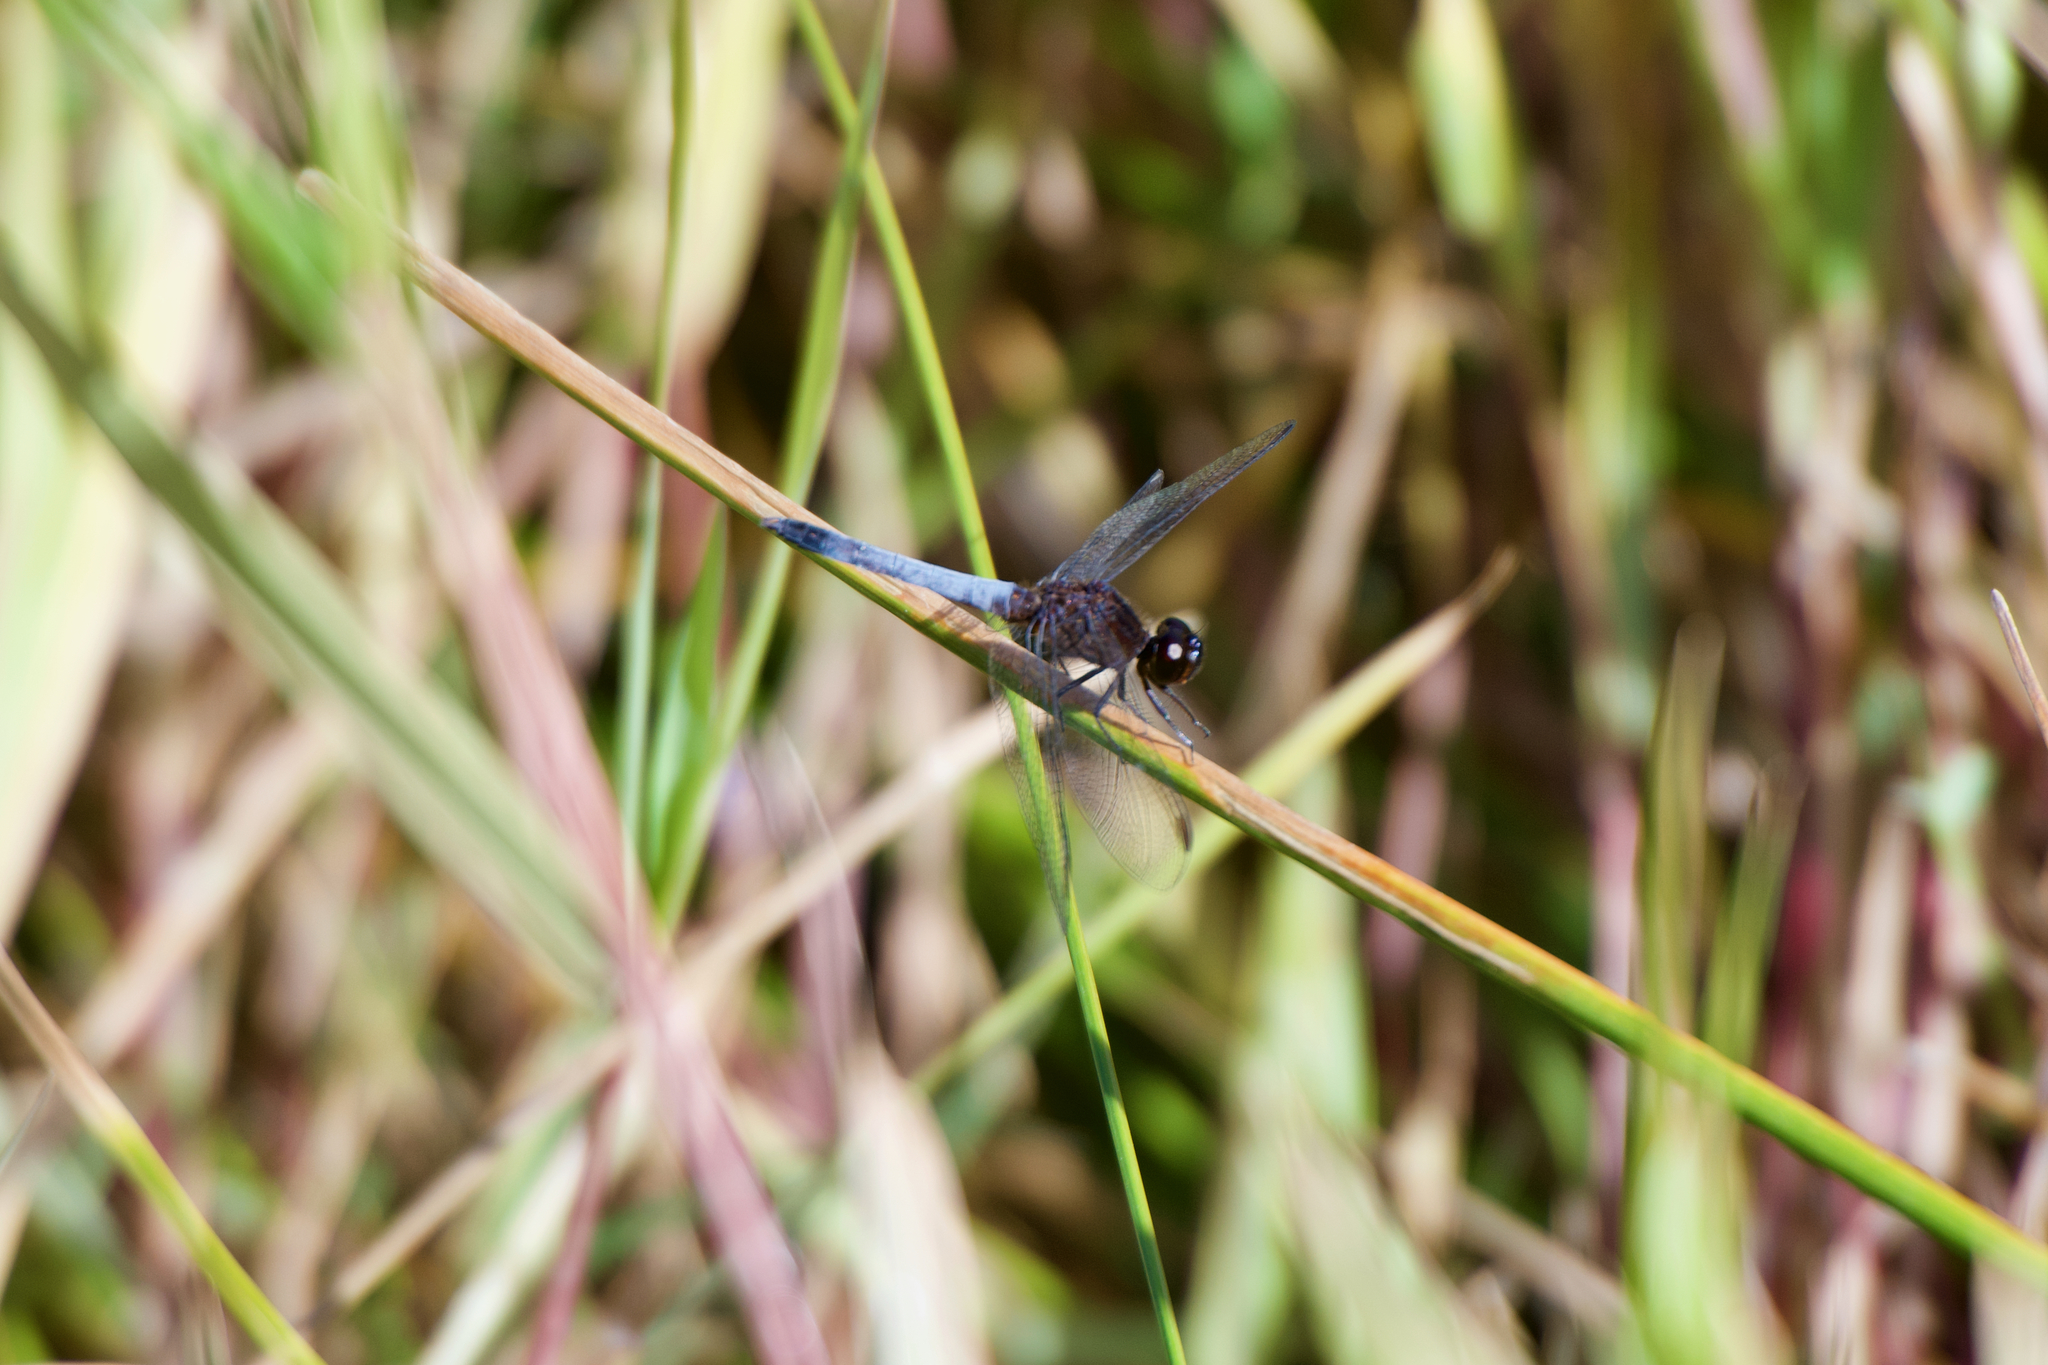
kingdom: Animalia
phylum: Arthropoda
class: Insecta
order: Odonata
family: Libellulidae
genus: Erythrodiplax
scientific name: Erythrodiplax basifusca
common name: Plateau dragonlet
